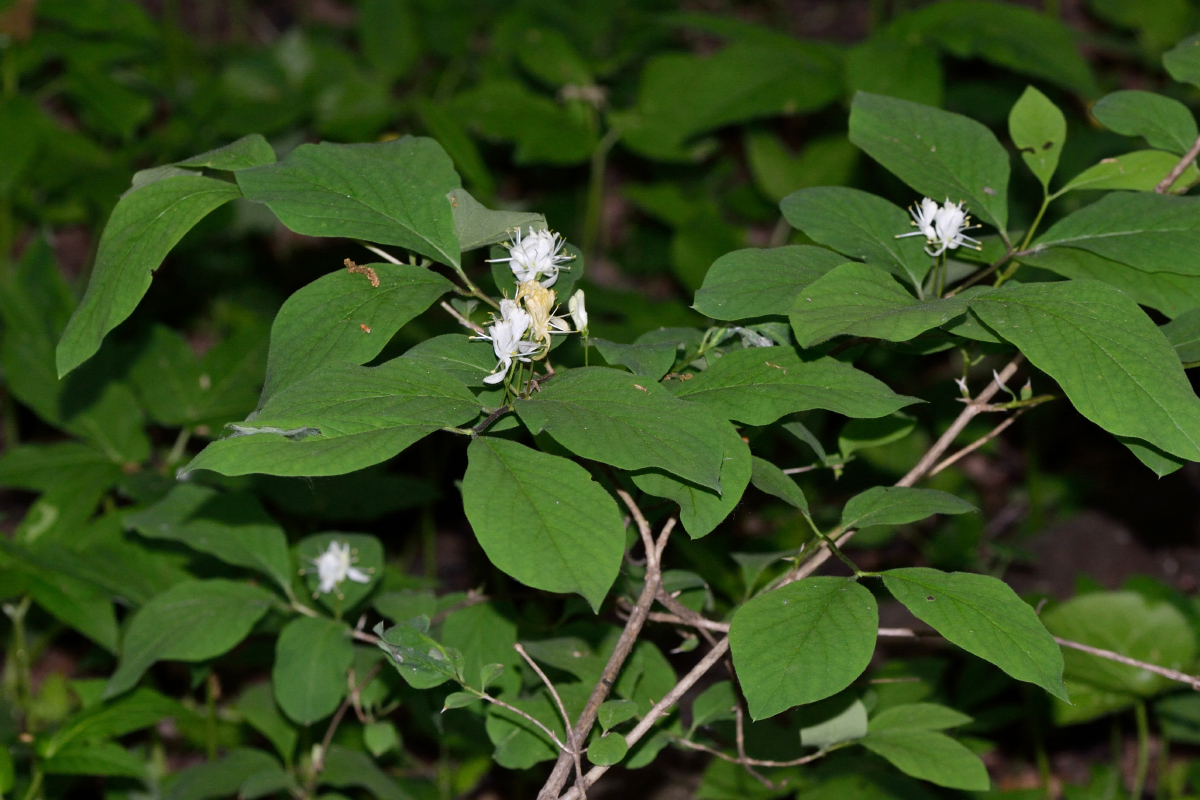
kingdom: Plantae
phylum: Tracheophyta
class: Magnoliopsida
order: Dipsacales
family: Caprifoliaceae
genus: Lonicera
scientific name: Lonicera xylosteum
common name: Fly honeysuckle
